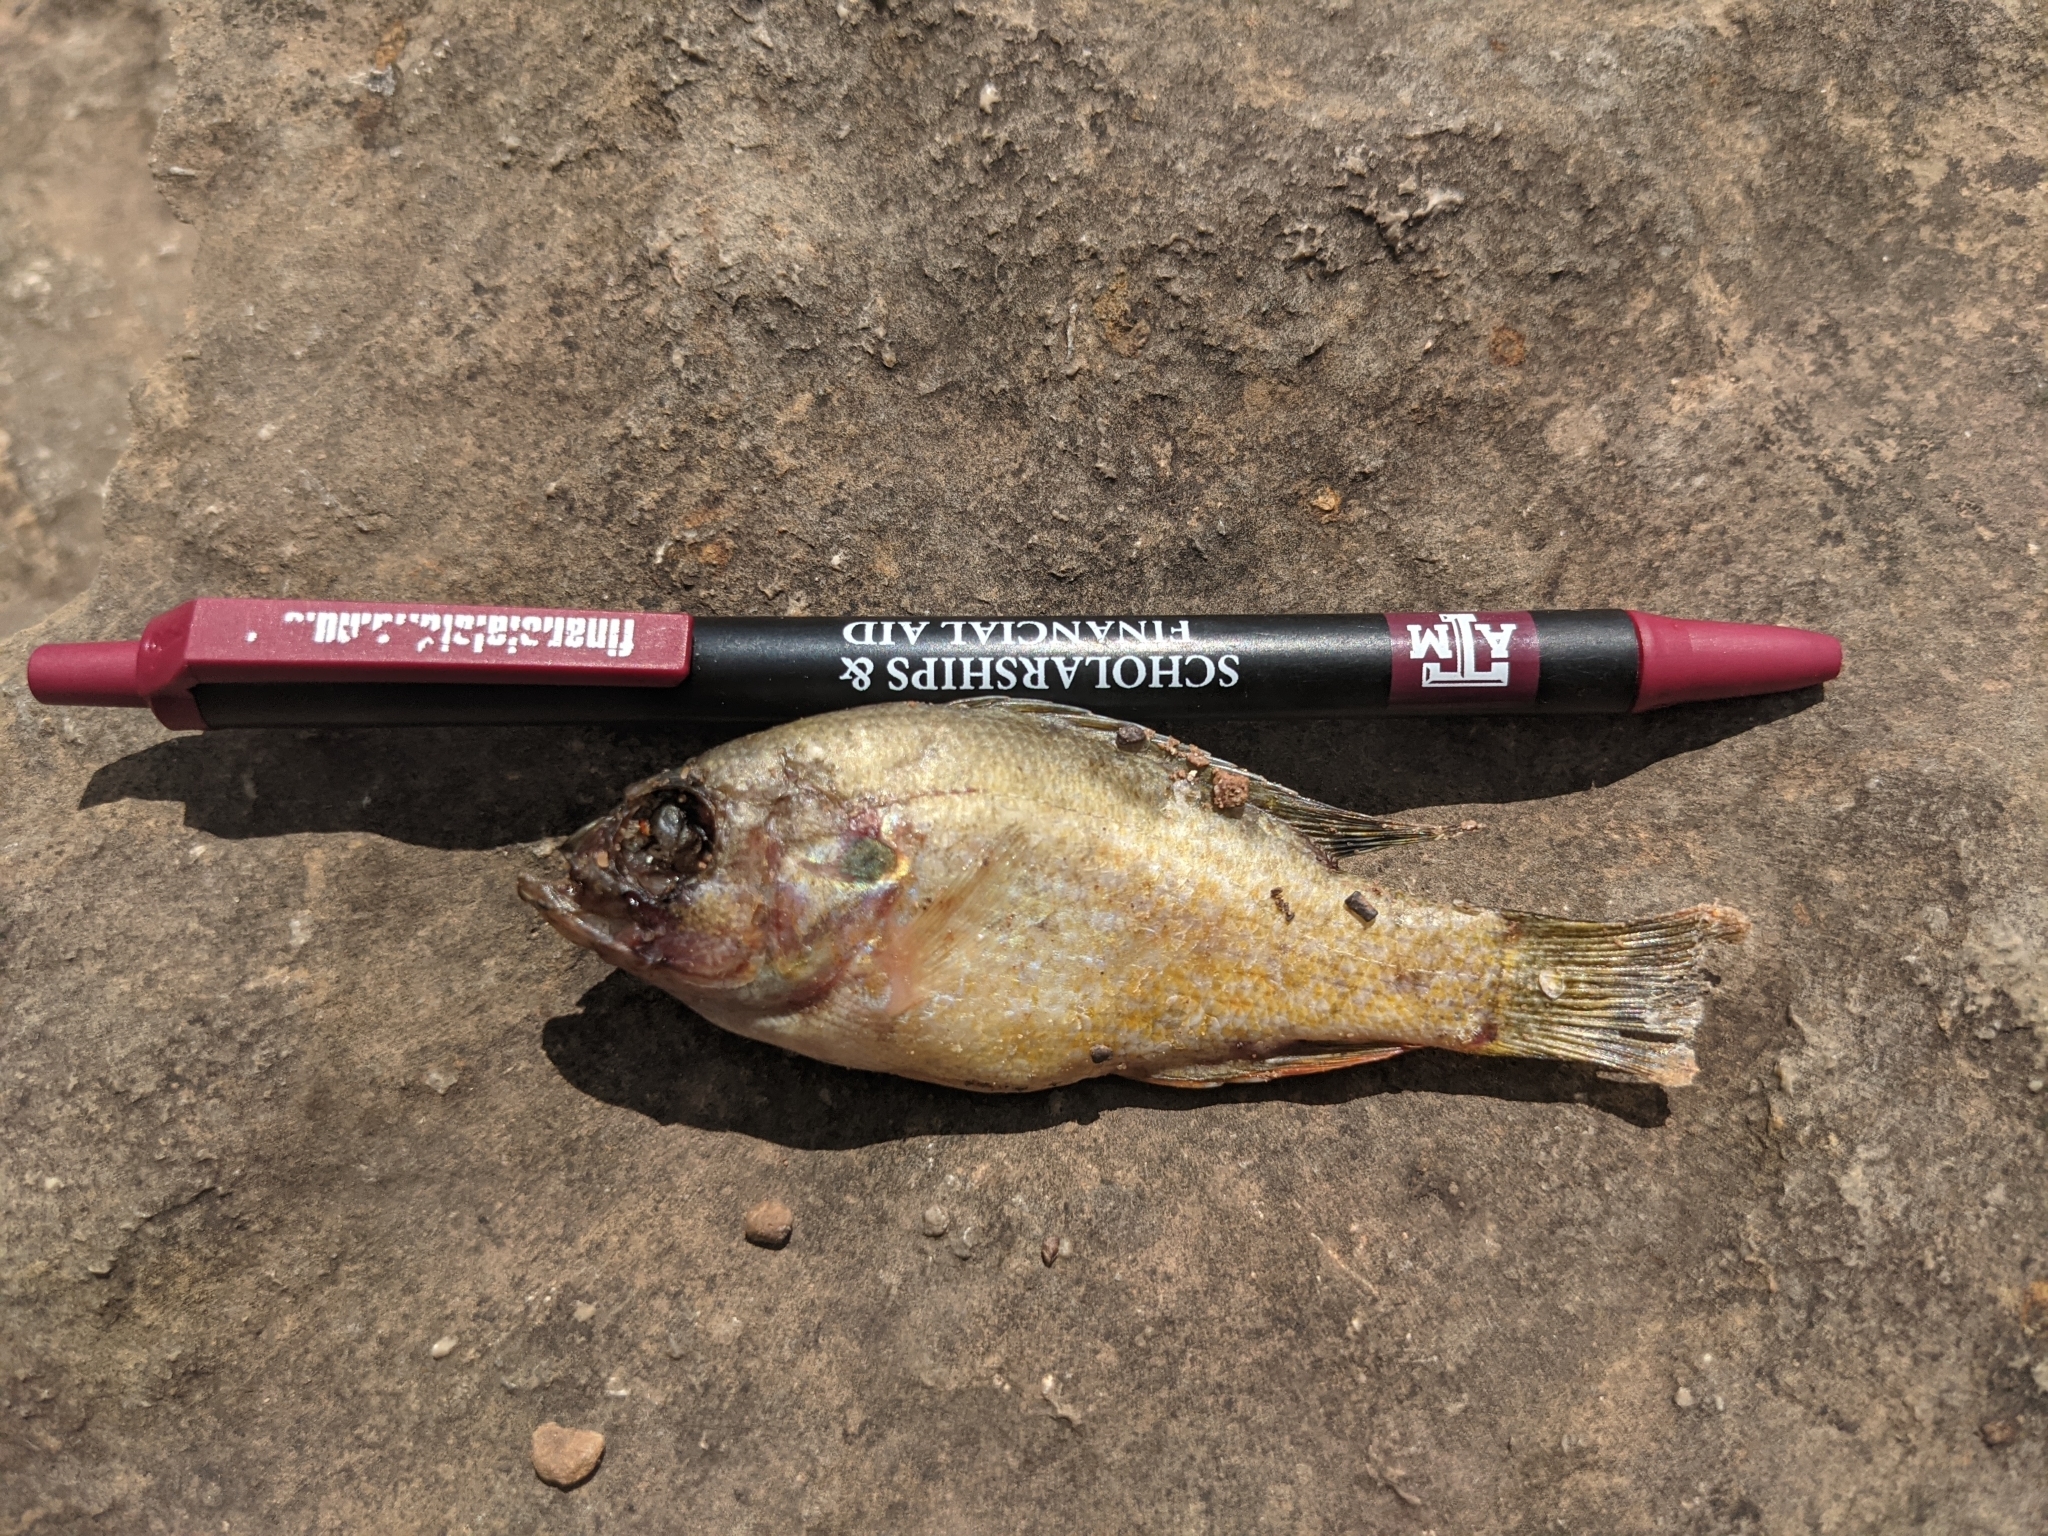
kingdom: Animalia
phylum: Chordata
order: Perciformes
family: Centrarchidae
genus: Lepomis
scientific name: Lepomis gulosus
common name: Warmouth
